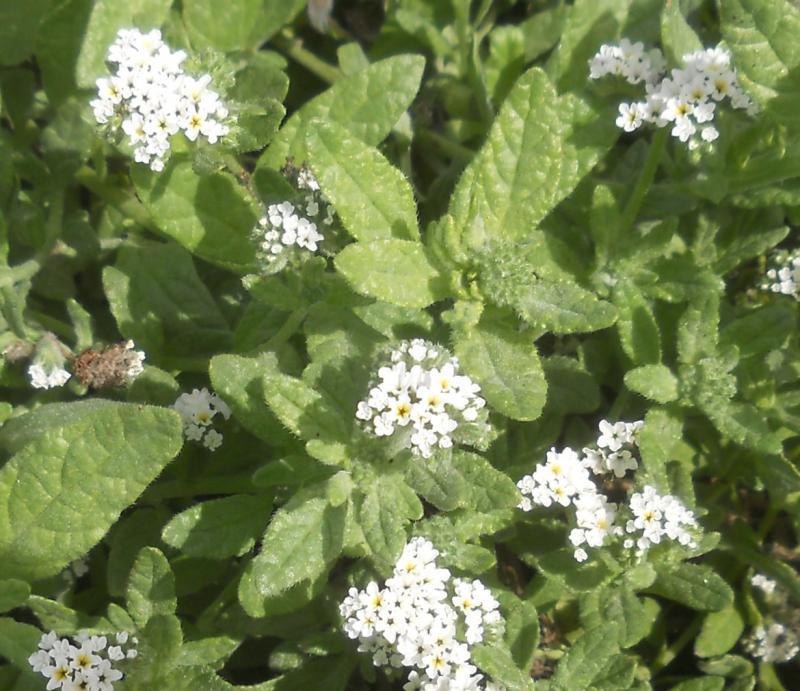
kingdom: Plantae
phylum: Tracheophyta
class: Magnoliopsida
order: Boraginales
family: Heliotropiaceae
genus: Heliotropium
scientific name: Heliotropium ramosissimum
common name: Wavy heliotrope
